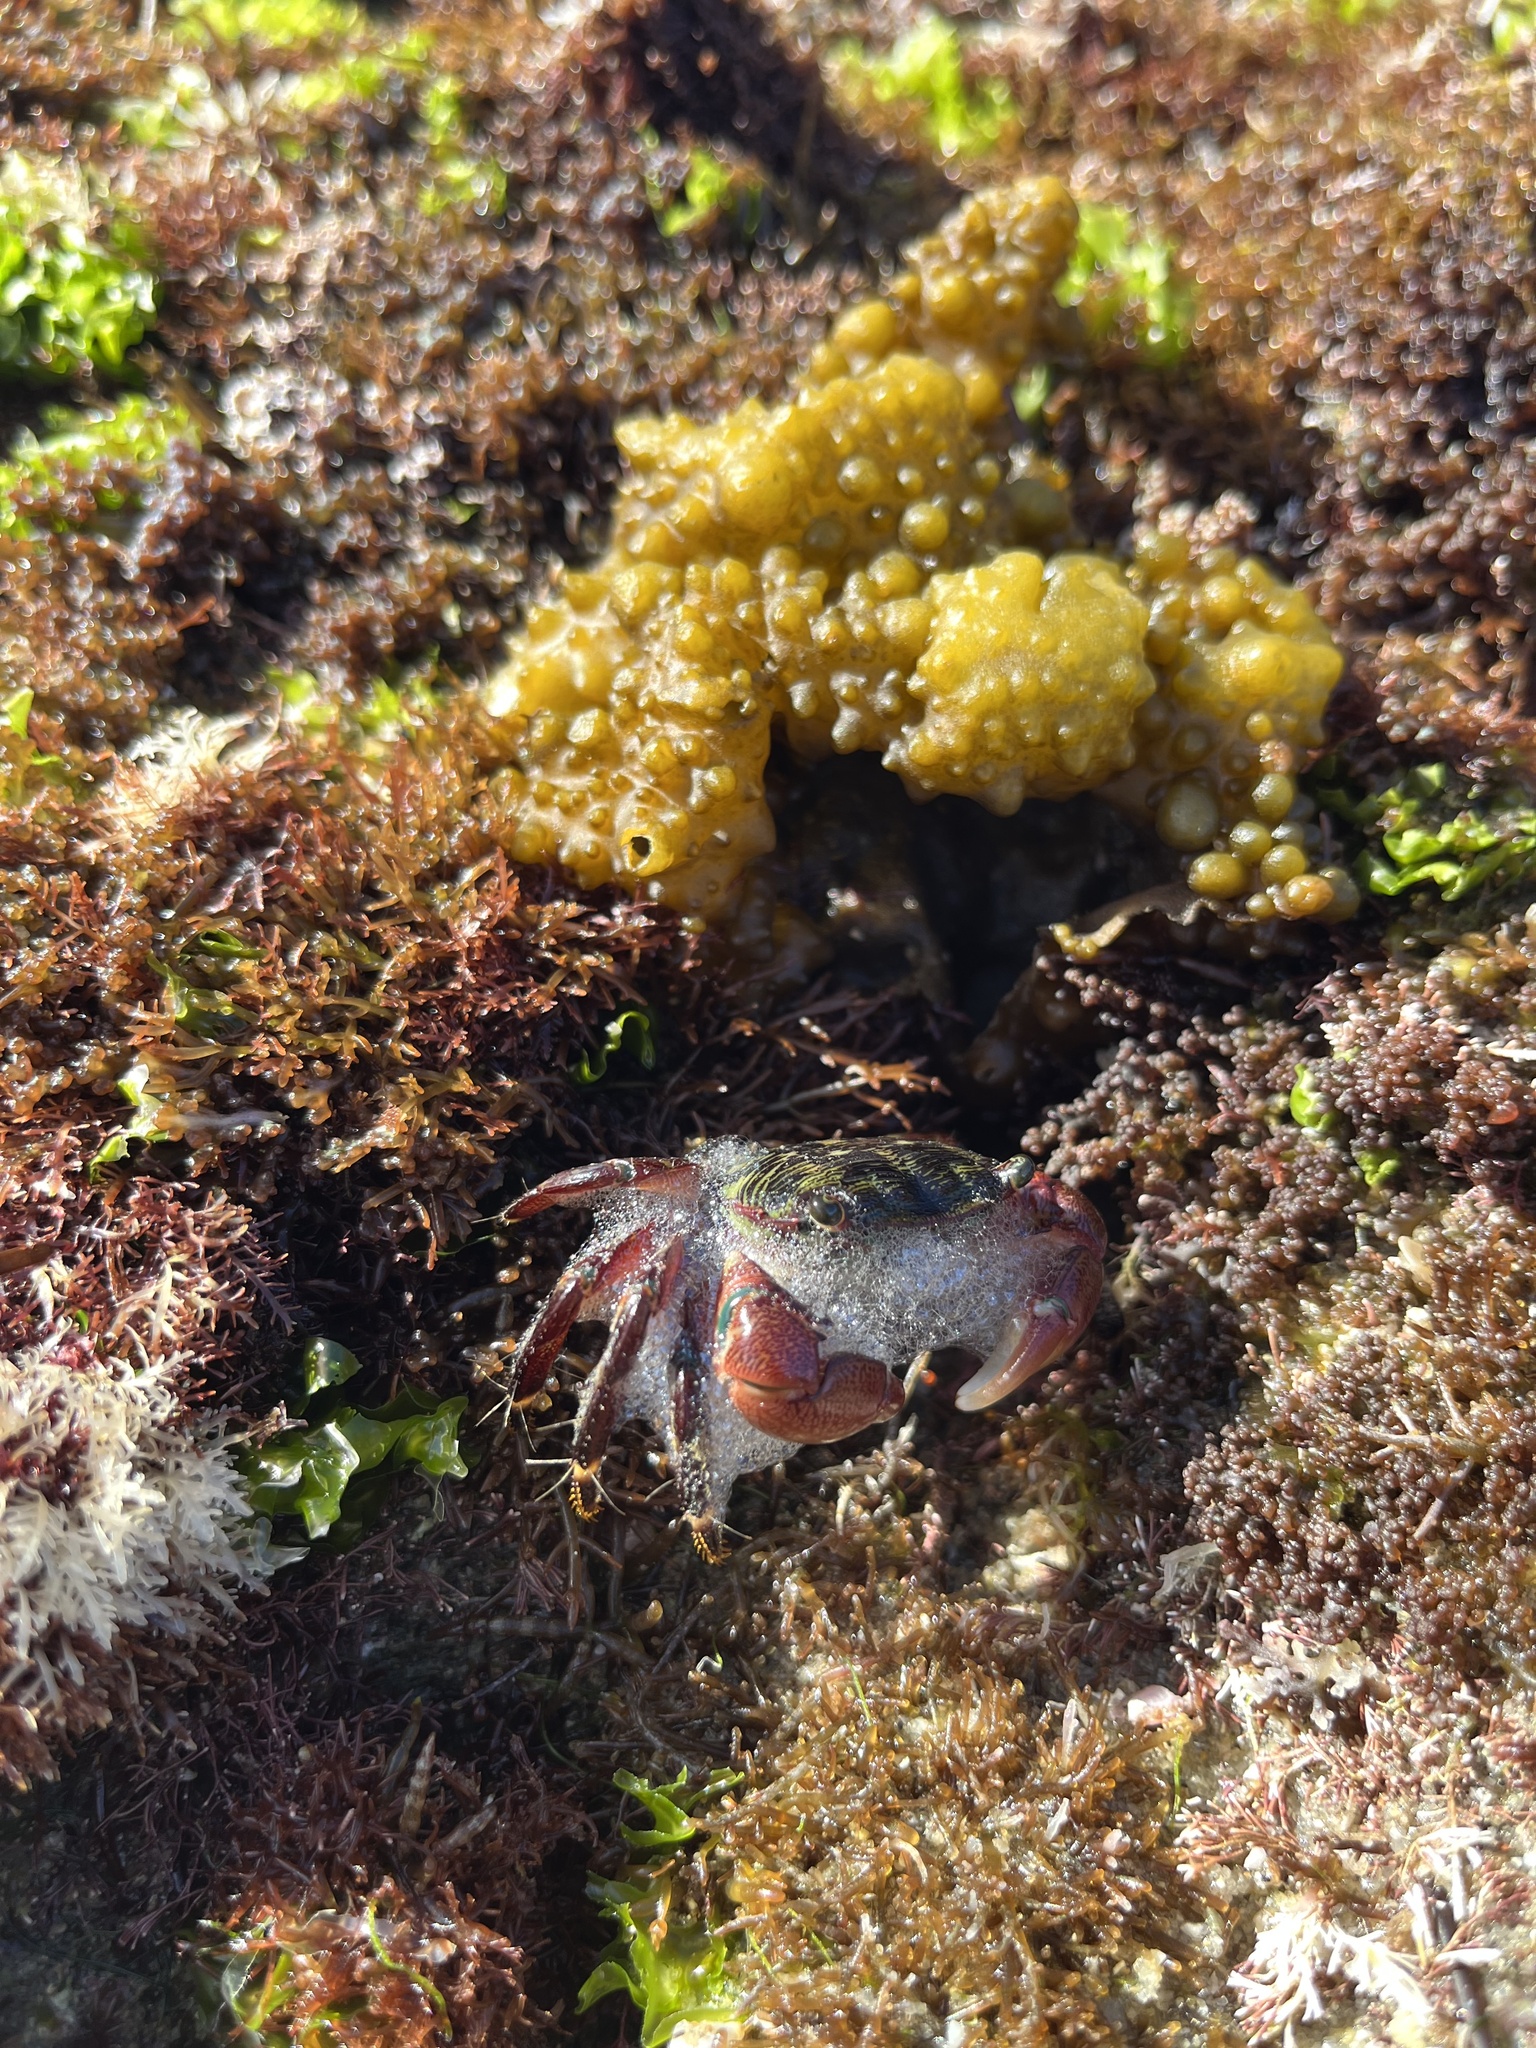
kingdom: Animalia
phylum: Arthropoda
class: Malacostraca
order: Decapoda
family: Grapsidae
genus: Pachygrapsus
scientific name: Pachygrapsus crassipes
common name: Striped shore crab
